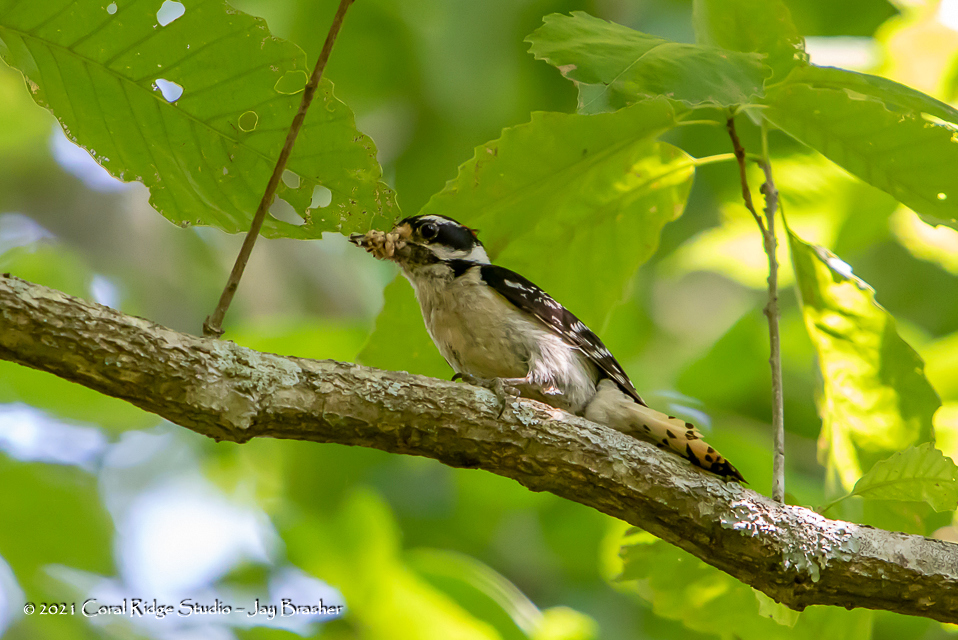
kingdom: Animalia
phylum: Chordata
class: Aves
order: Piciformes
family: Picidae
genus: Dryobates
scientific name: Dryobates pubescens
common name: Downy woodpecker
